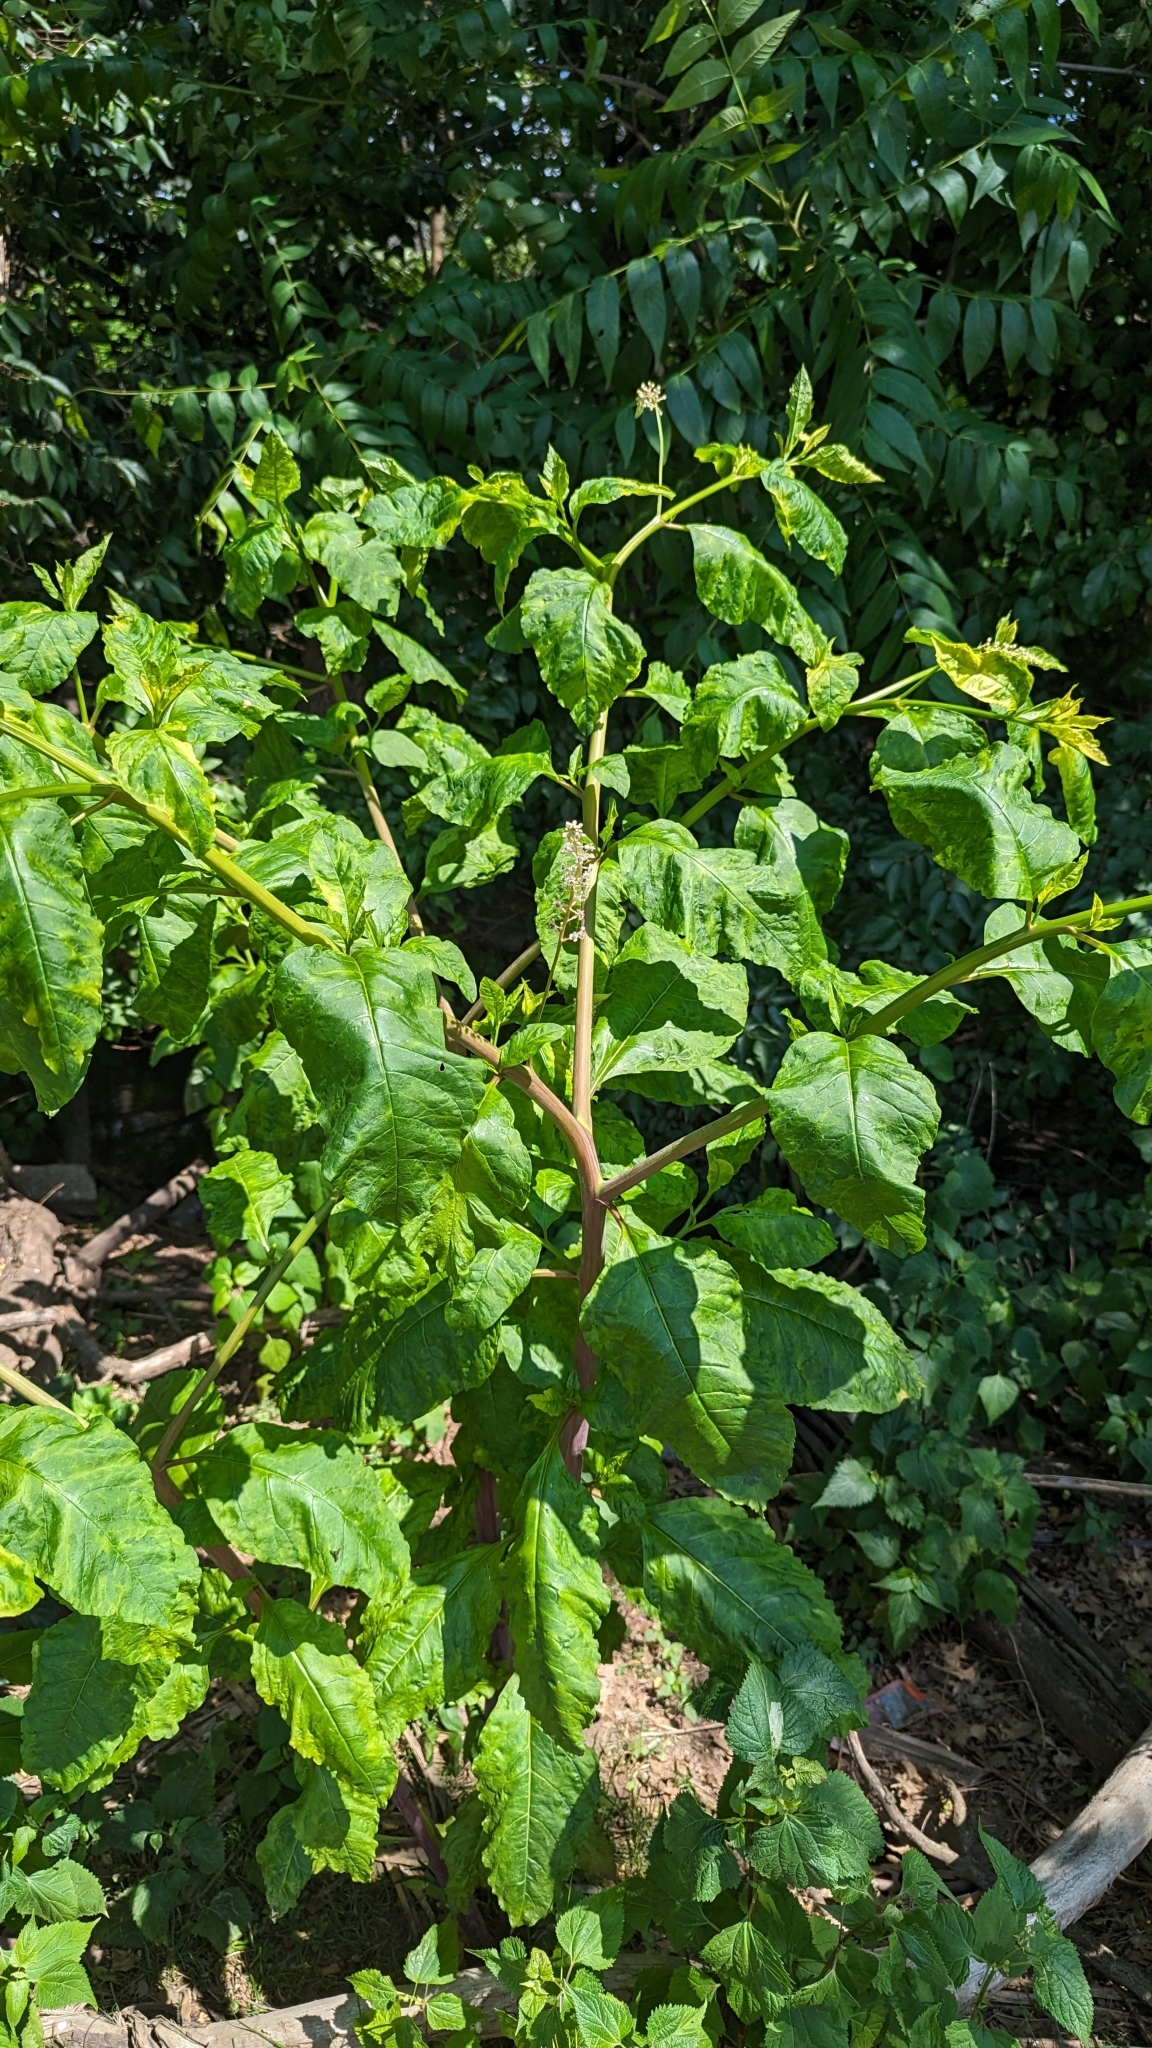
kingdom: Plantae
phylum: Tracheophyta
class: Magnoliopsida
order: Caryophyllales
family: Phytolaccaceae
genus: Phytolacca
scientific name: Phytolacca americana
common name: American pokeweed
